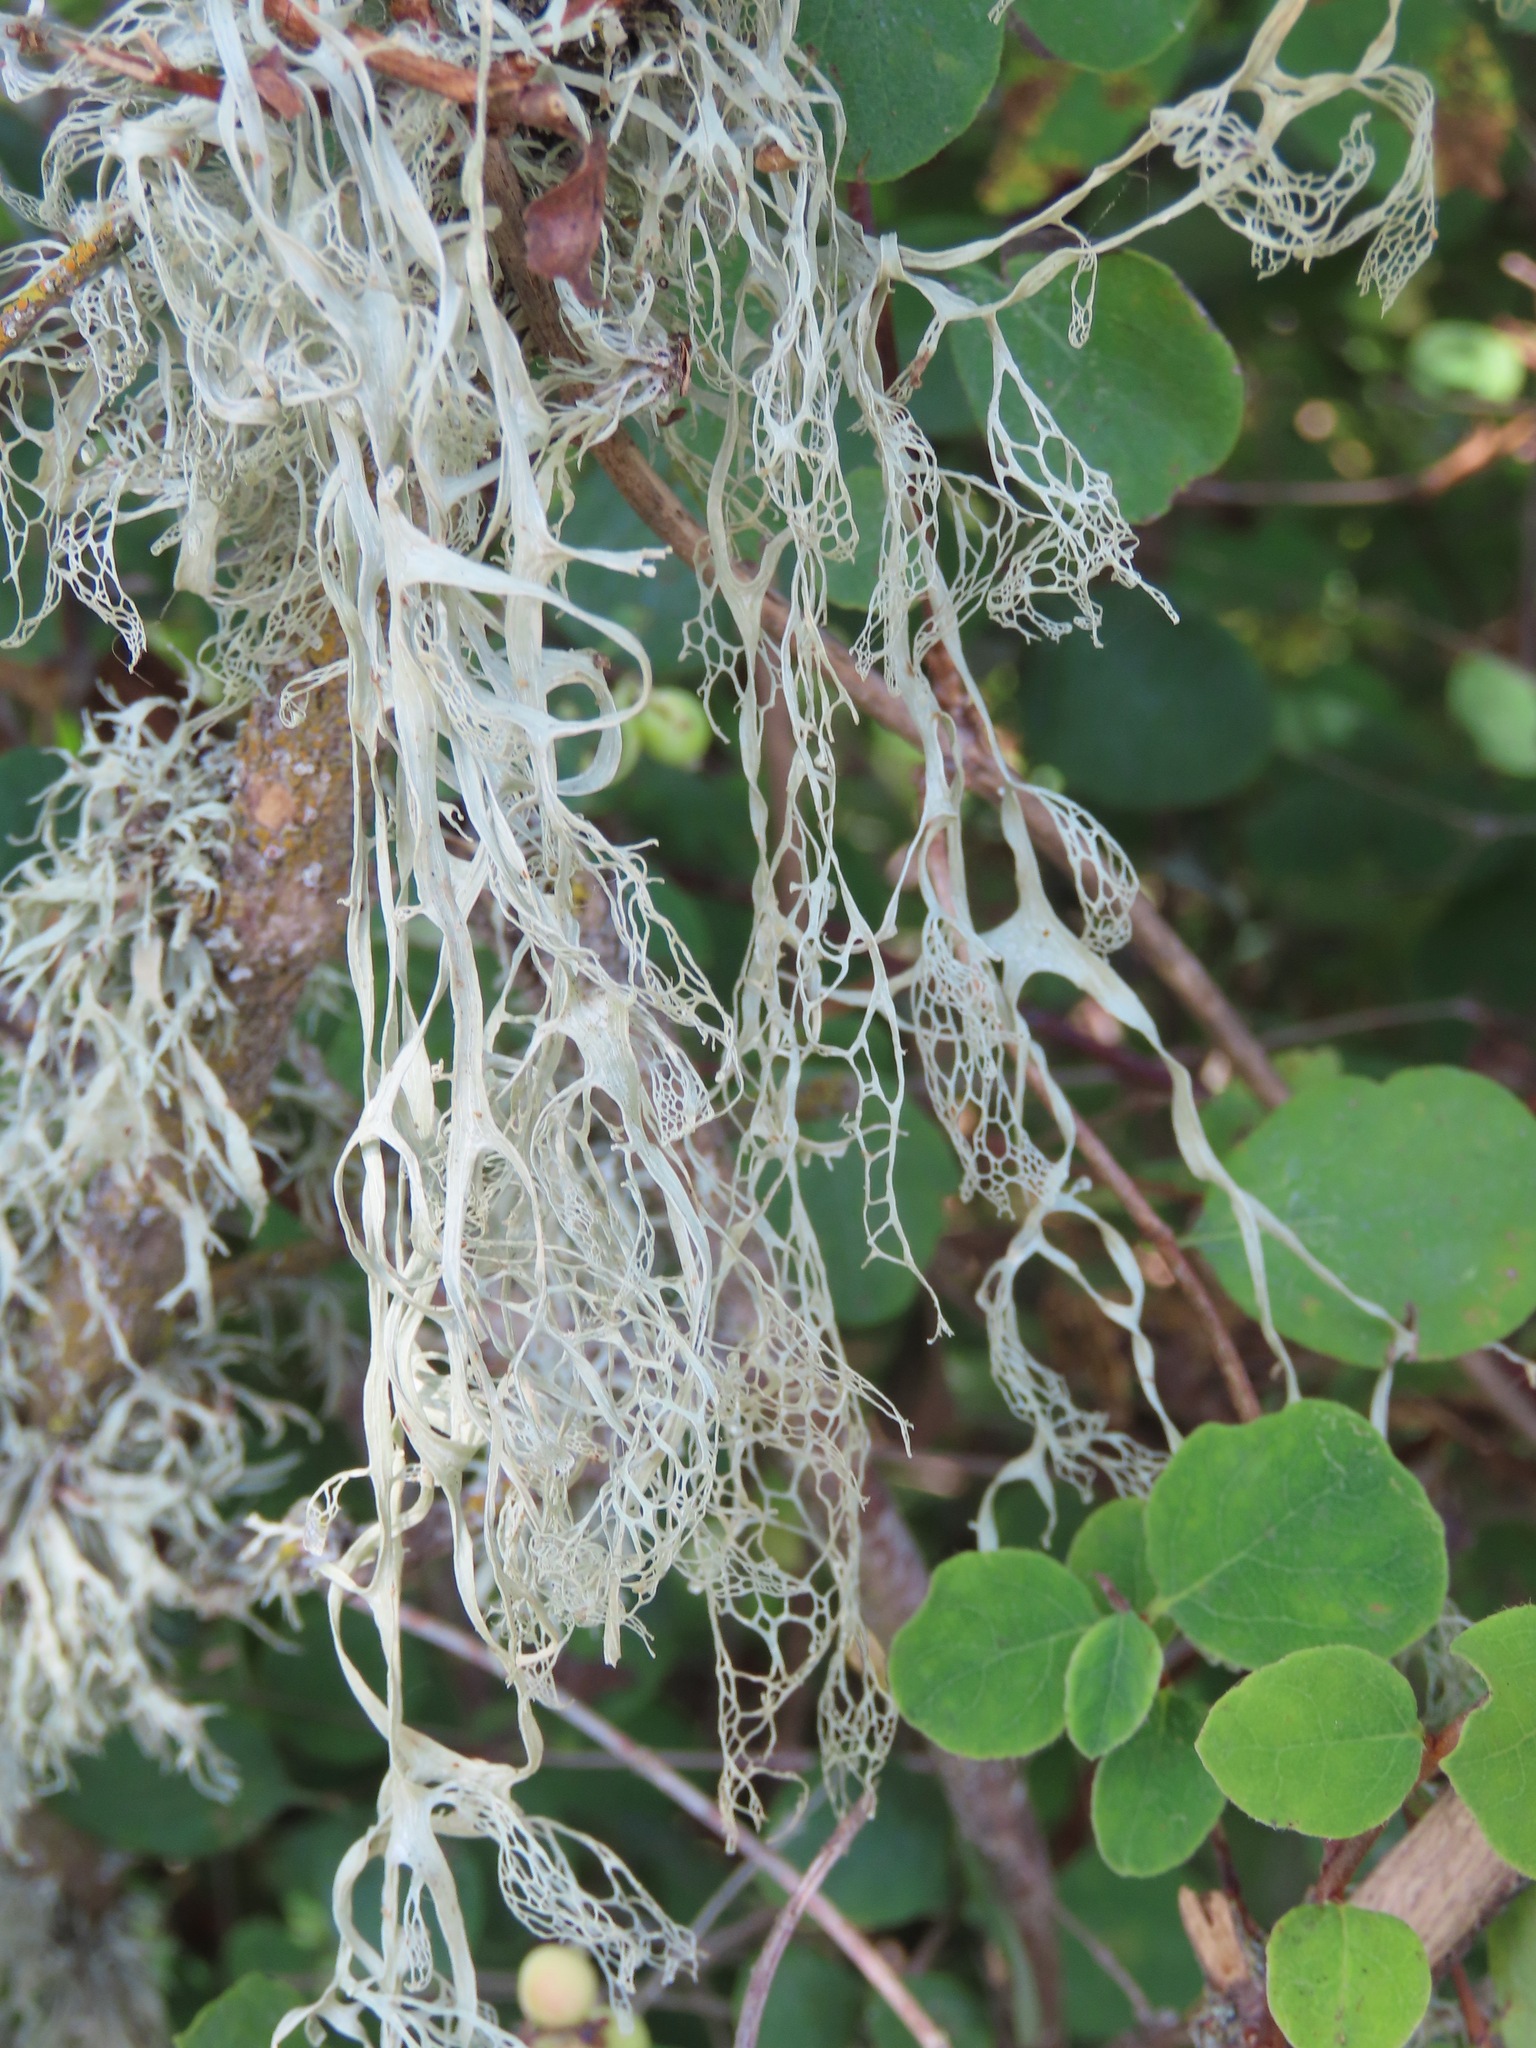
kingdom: Fungi
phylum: Ascomycota
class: Lecanoromycetes
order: Lecanorales
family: Ramalinaceae
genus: Ramalina
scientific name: Ramalina menziesii
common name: Lace lichen
